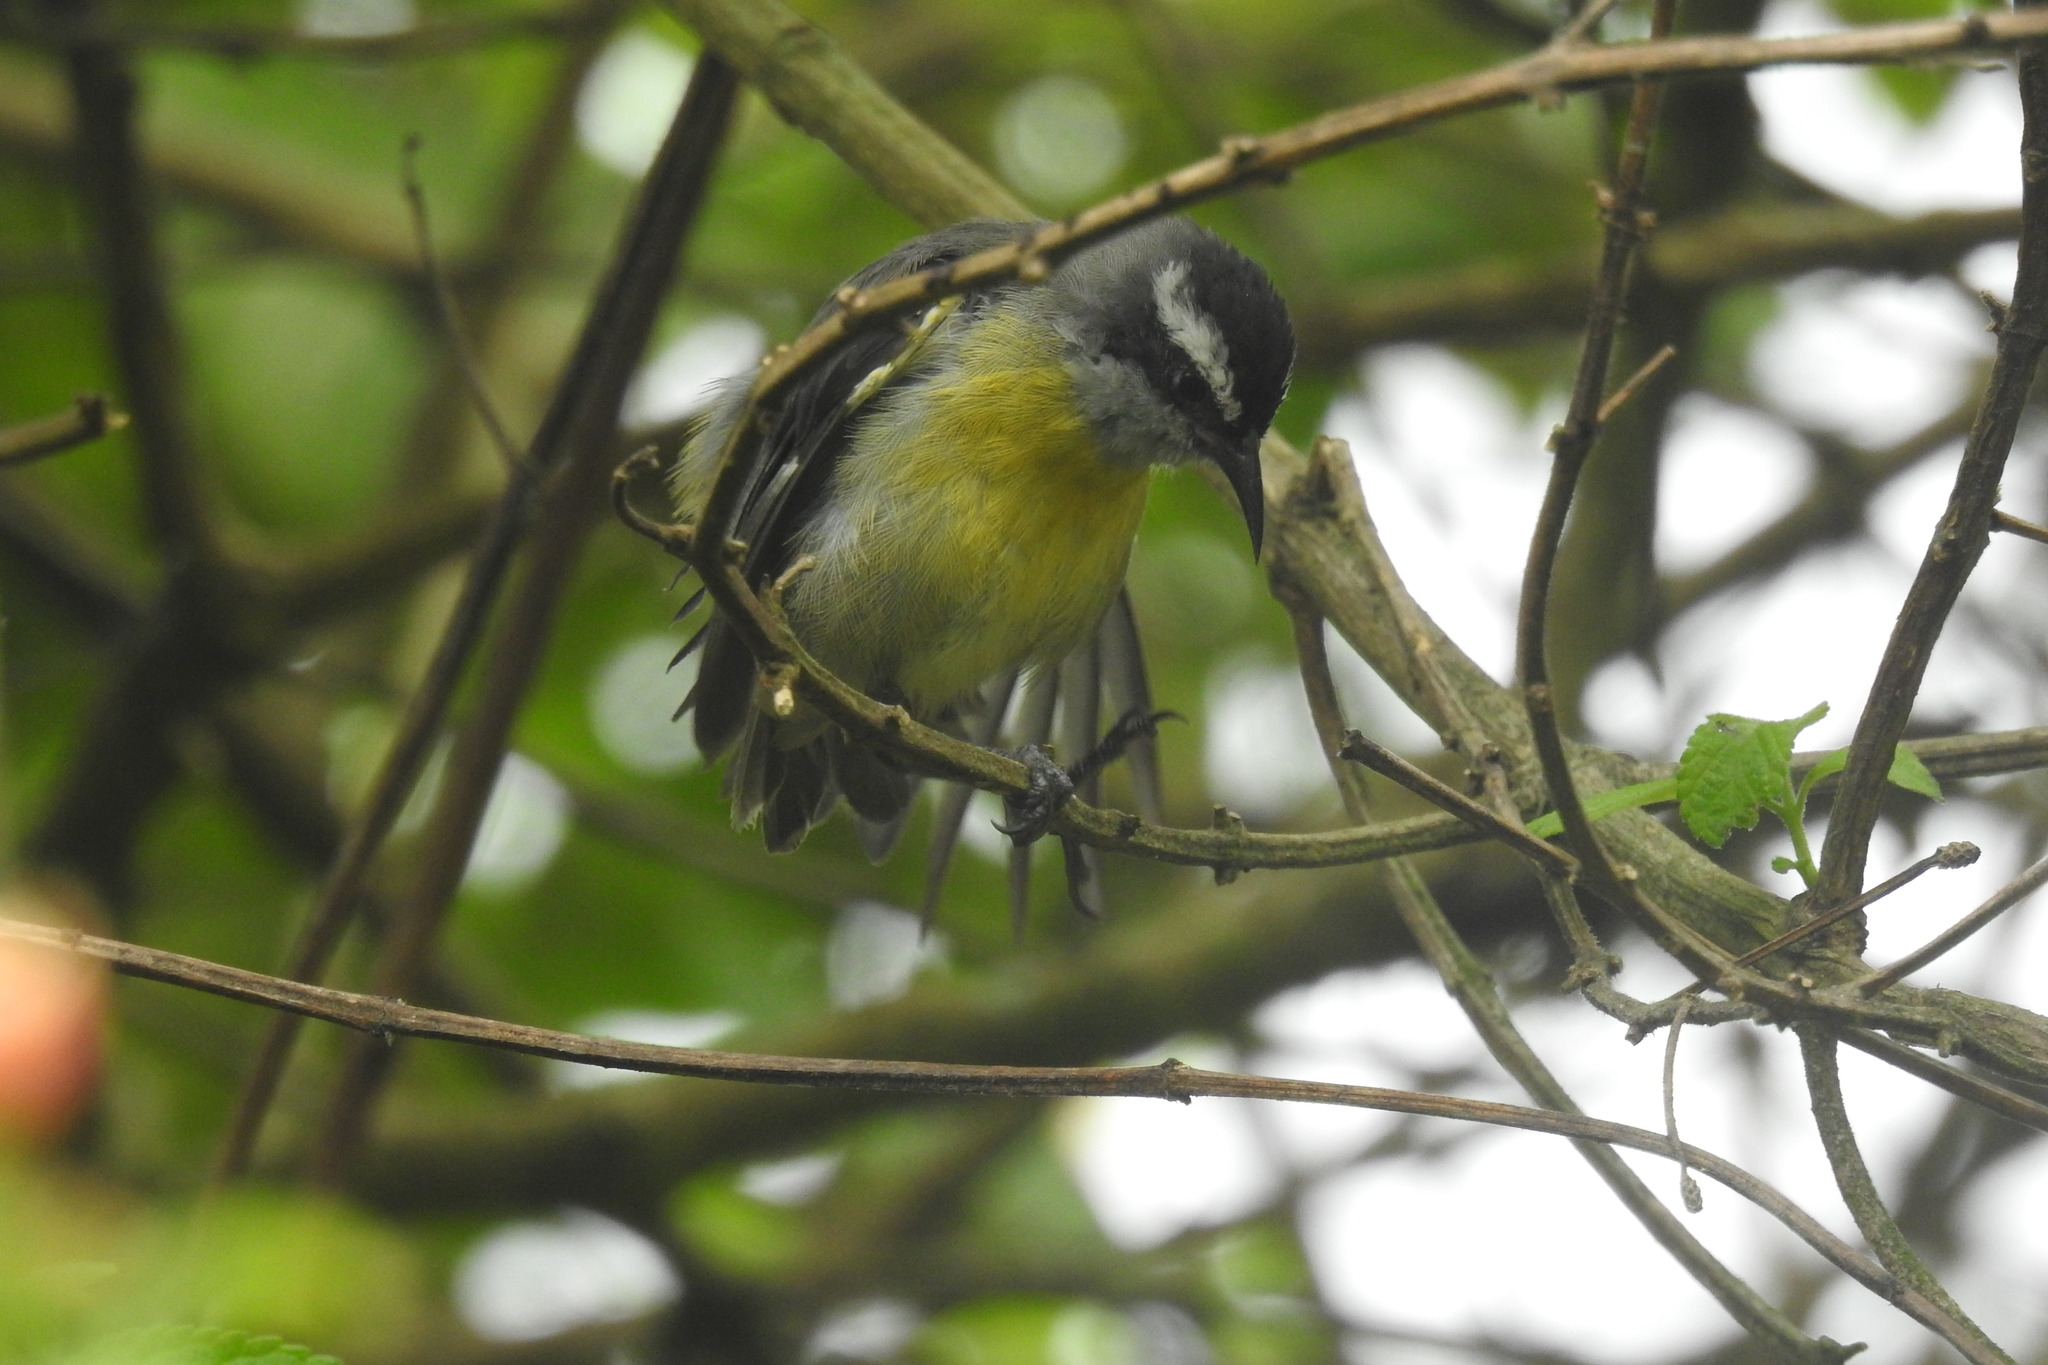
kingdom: Animalia
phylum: Chordata
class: Aves
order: Passeriformes
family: Thraupidae
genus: Coereba
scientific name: Coereba flaveola
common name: Bananaquit
